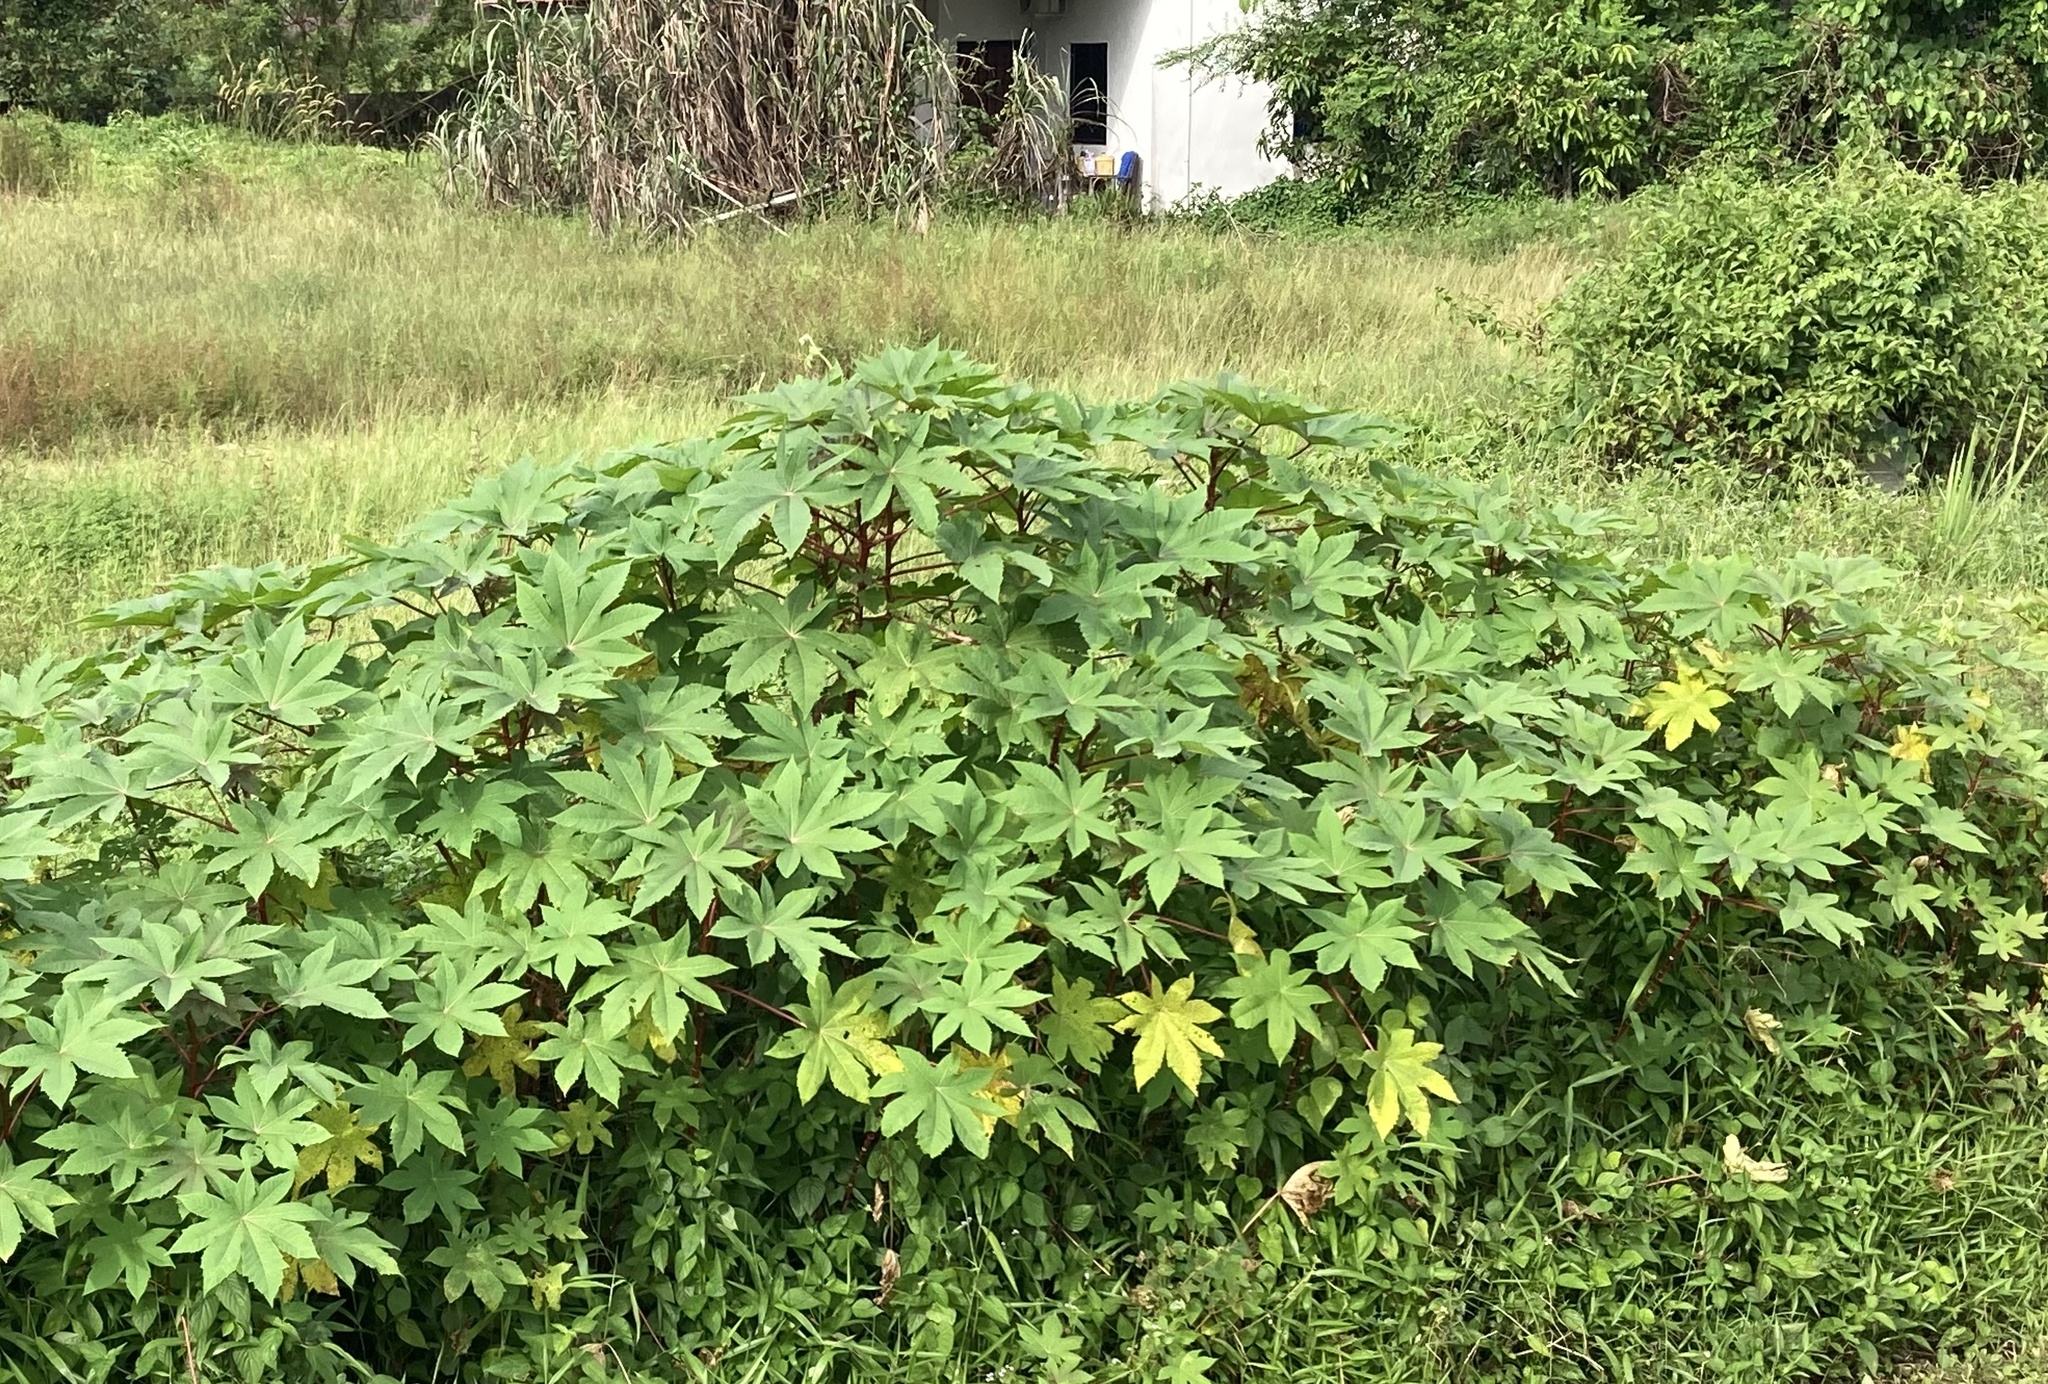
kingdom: Plantae
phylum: Tracheophyta
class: Magnoliopsida
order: Malpighiales
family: Euphorbiaceae
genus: Ricinus
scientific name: Ricinus communis
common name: Castor-oil-plant
